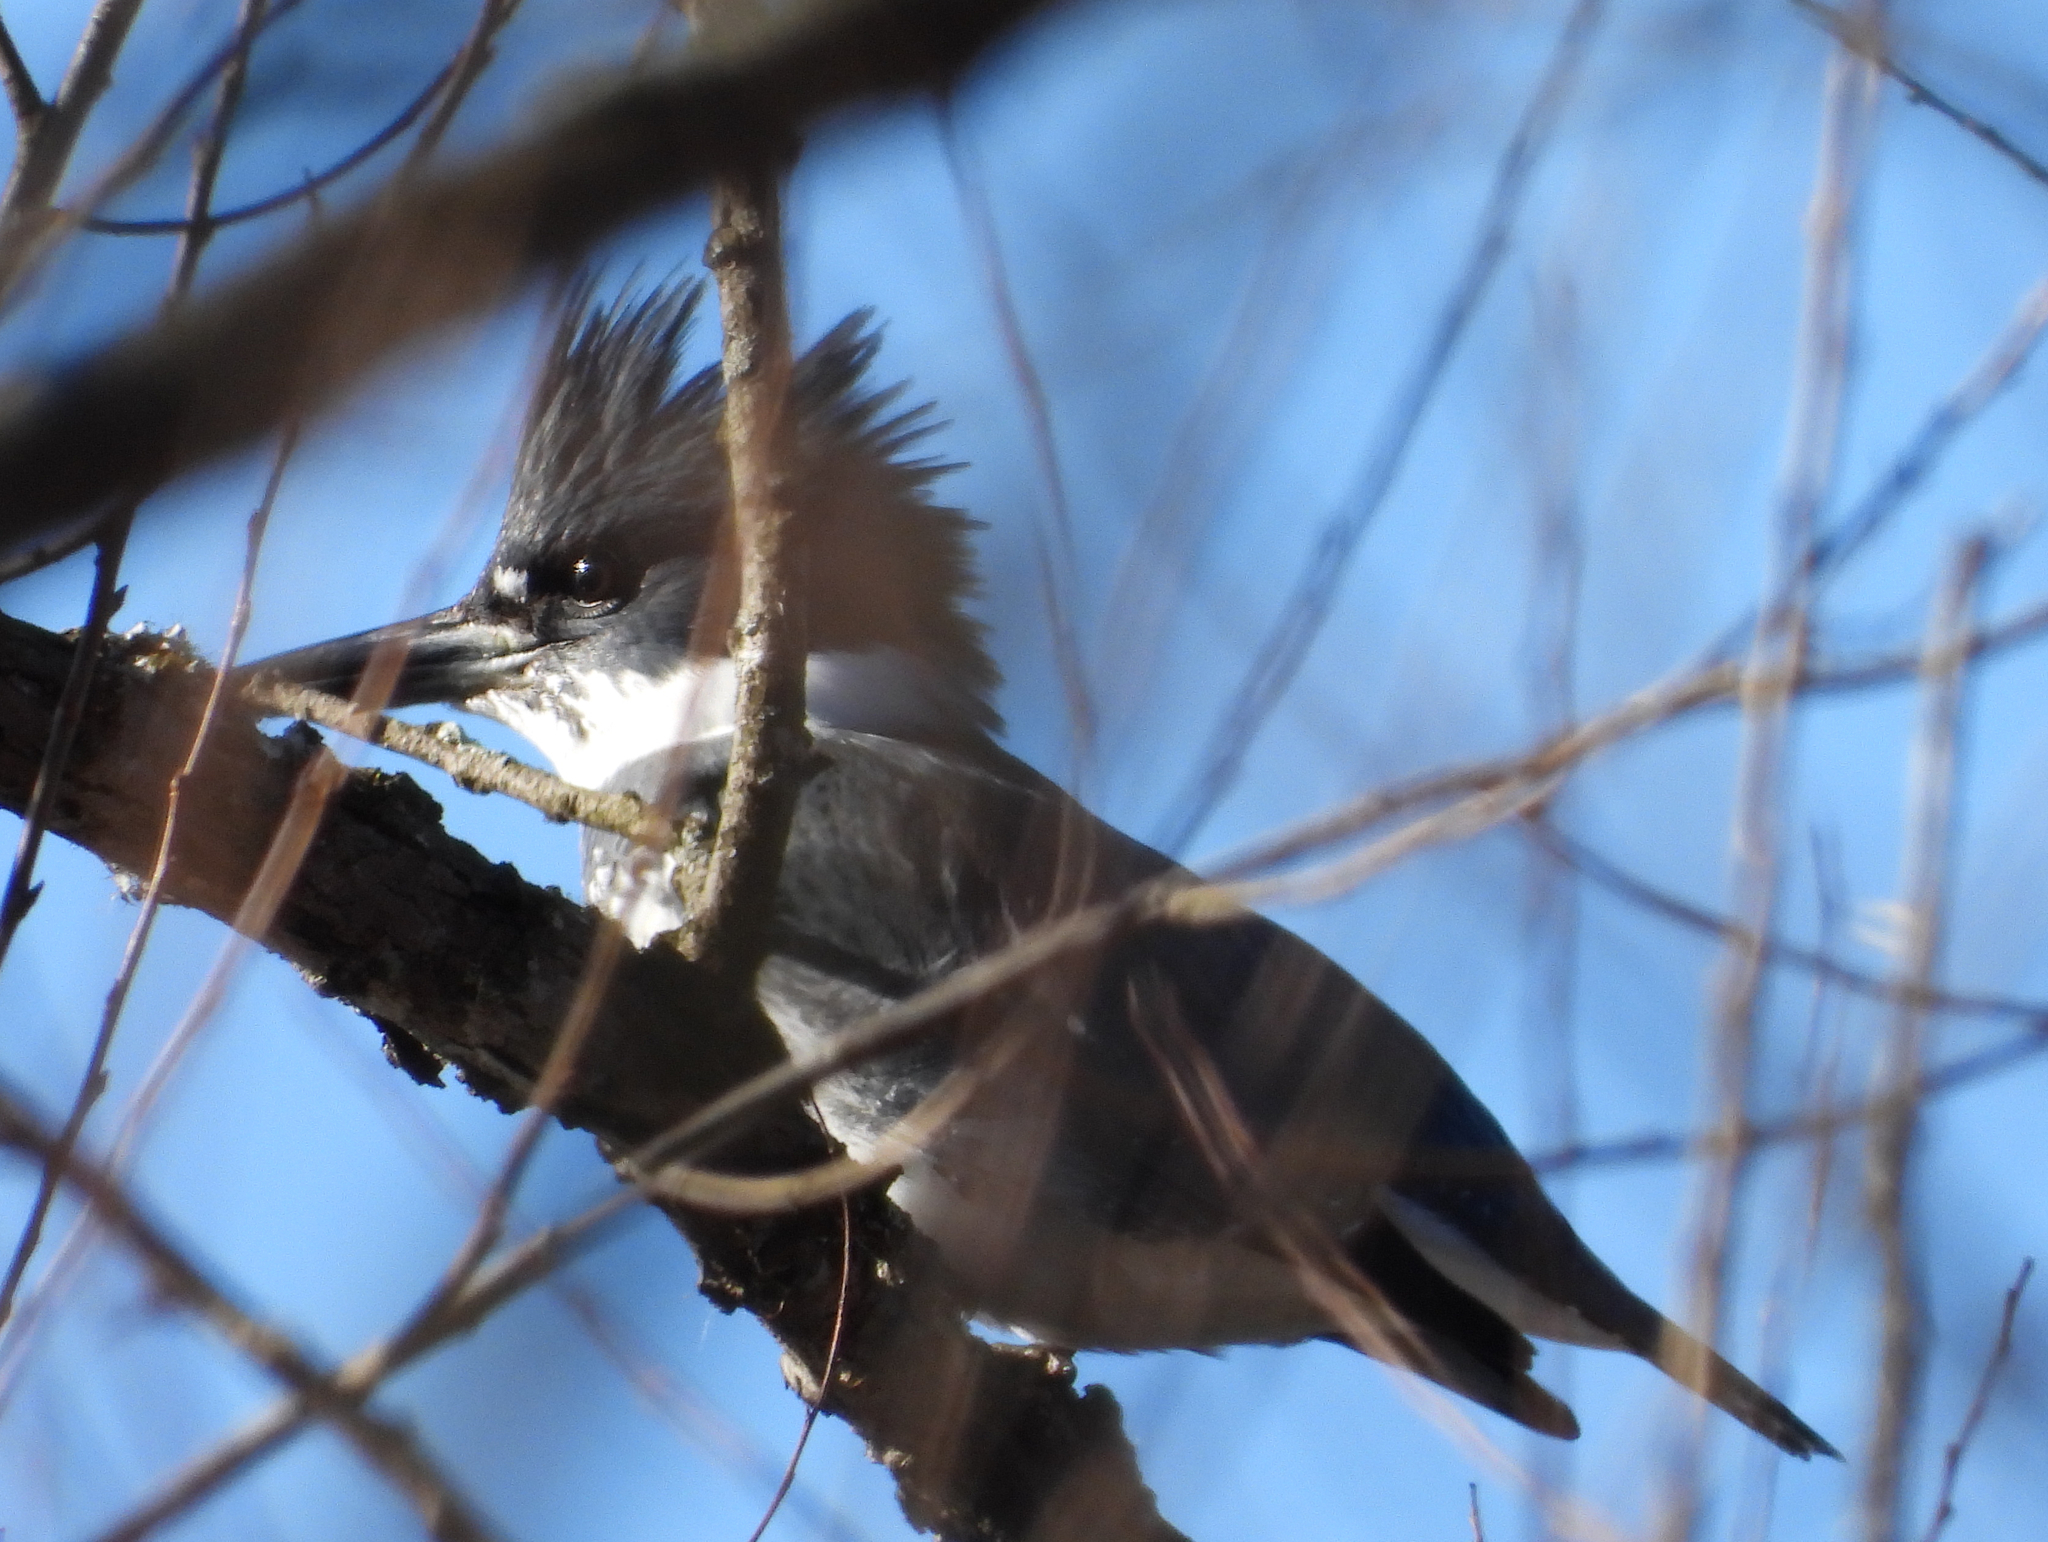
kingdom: Animalia
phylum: Chordata
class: Aves
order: Coraciiformes
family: Alcedinidae
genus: Megaceryle
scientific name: Megaceryle alcyon
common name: Belted kingfisher
